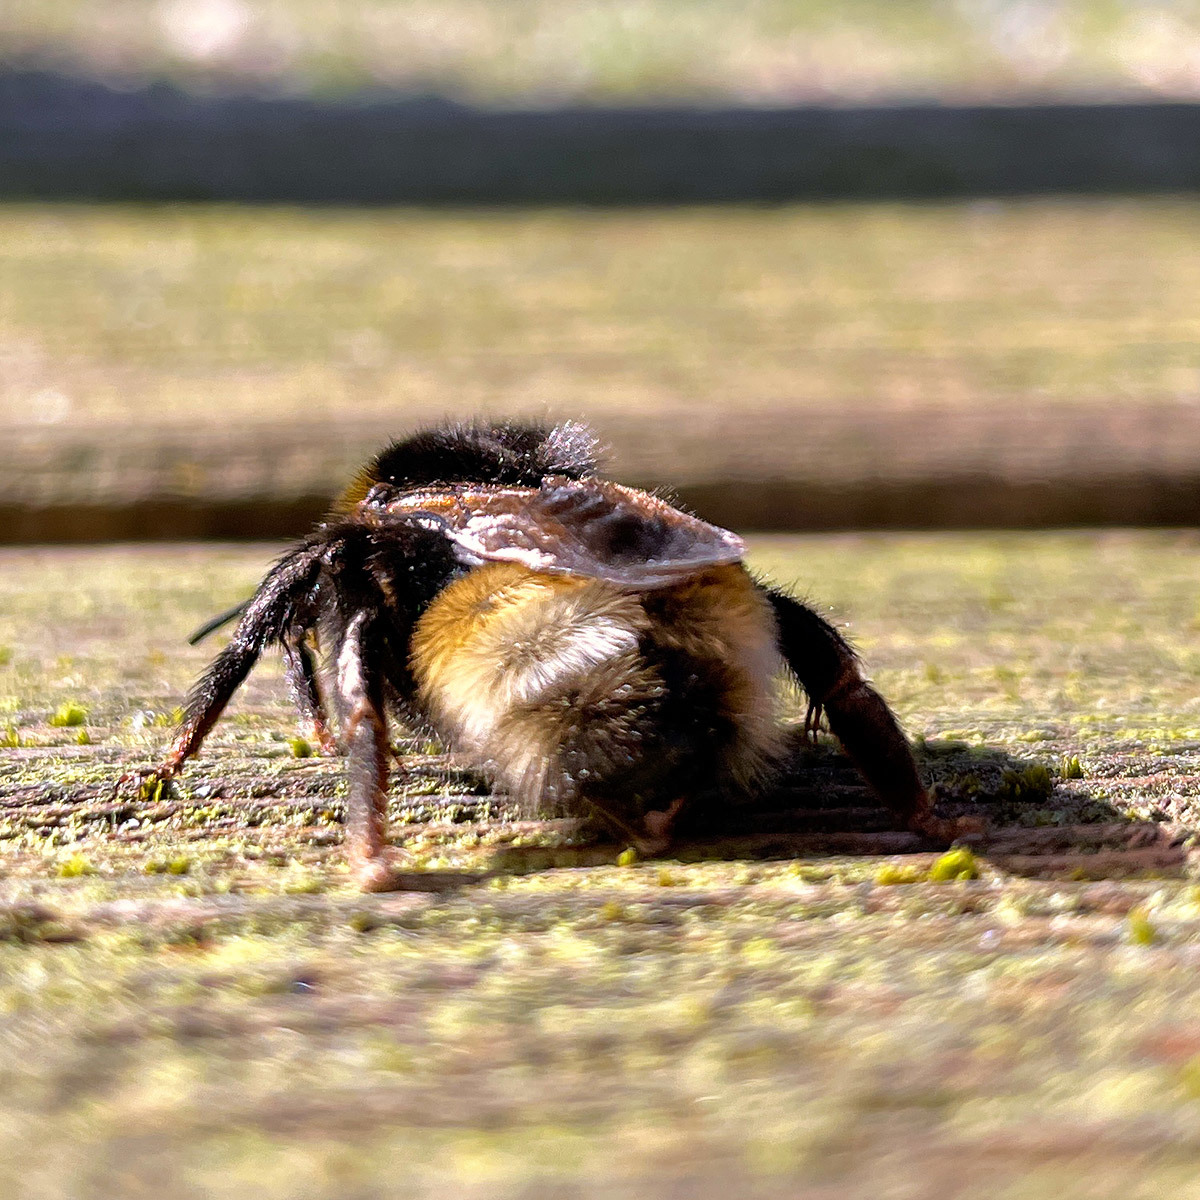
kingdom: Animalia
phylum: Arthropoda
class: Insecta
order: Hymenoptera
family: Apidae
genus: Bombus
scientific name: Bombus vestalis
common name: Vestal cuckoo bee
